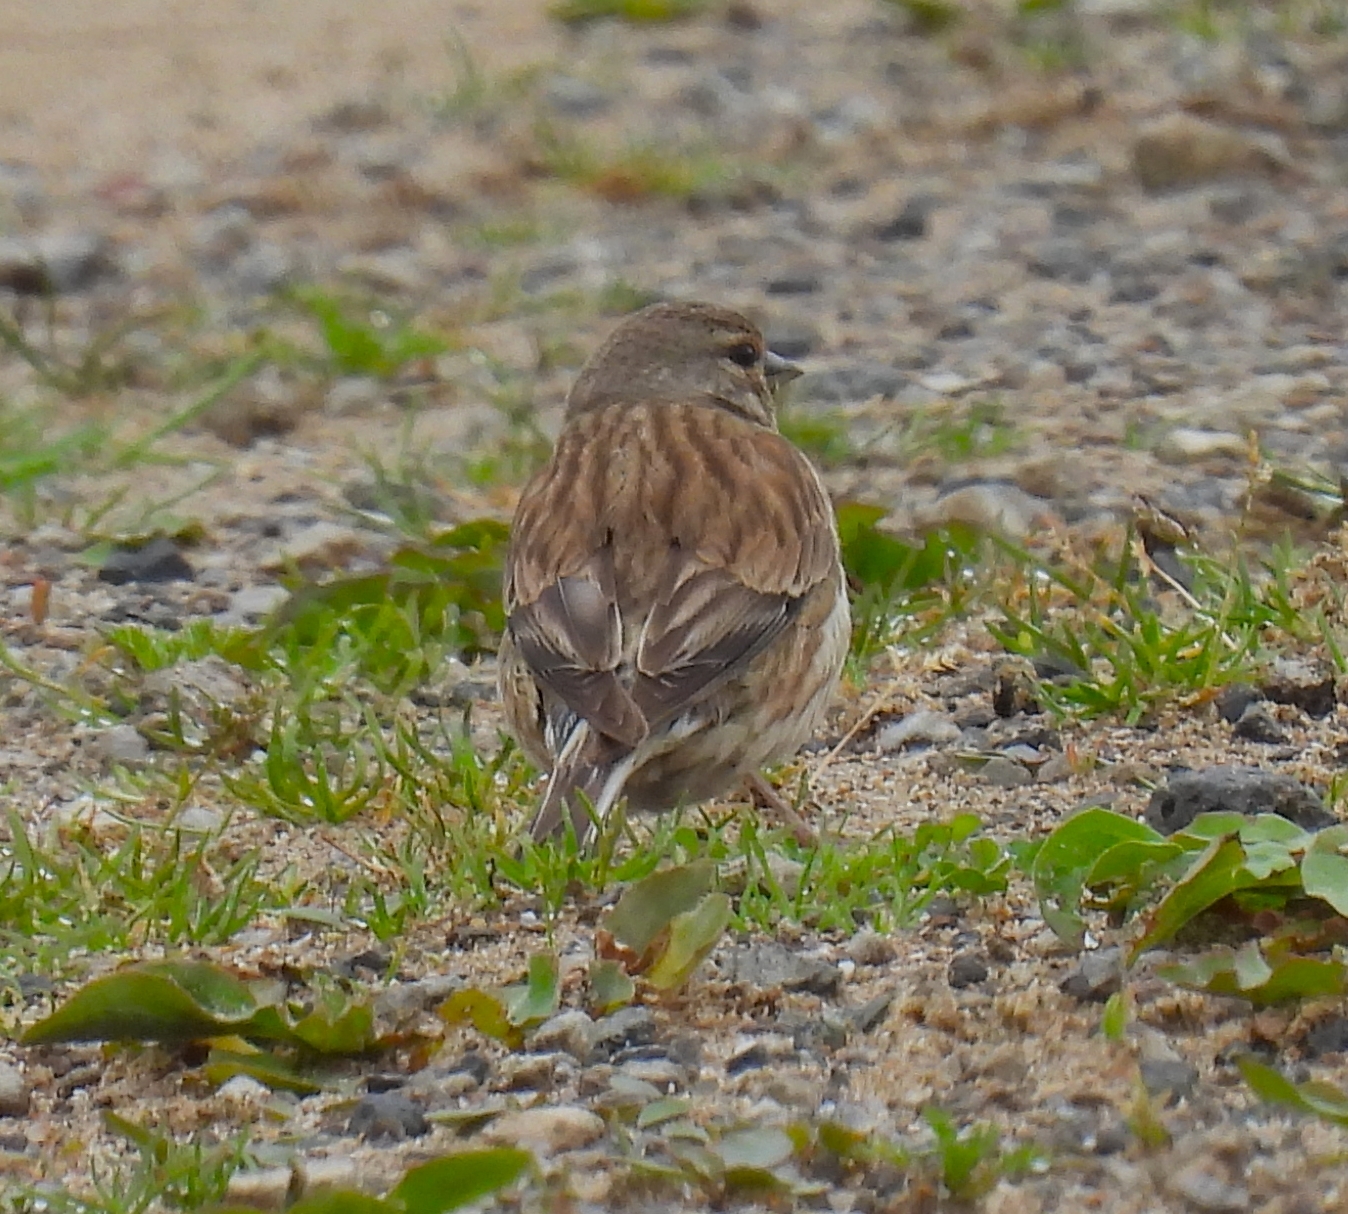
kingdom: Animalia
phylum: Chordata
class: Aves
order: Passeriformes
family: Fringillidae
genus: Linaria
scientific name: Linaria cannabina
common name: Common linnet
